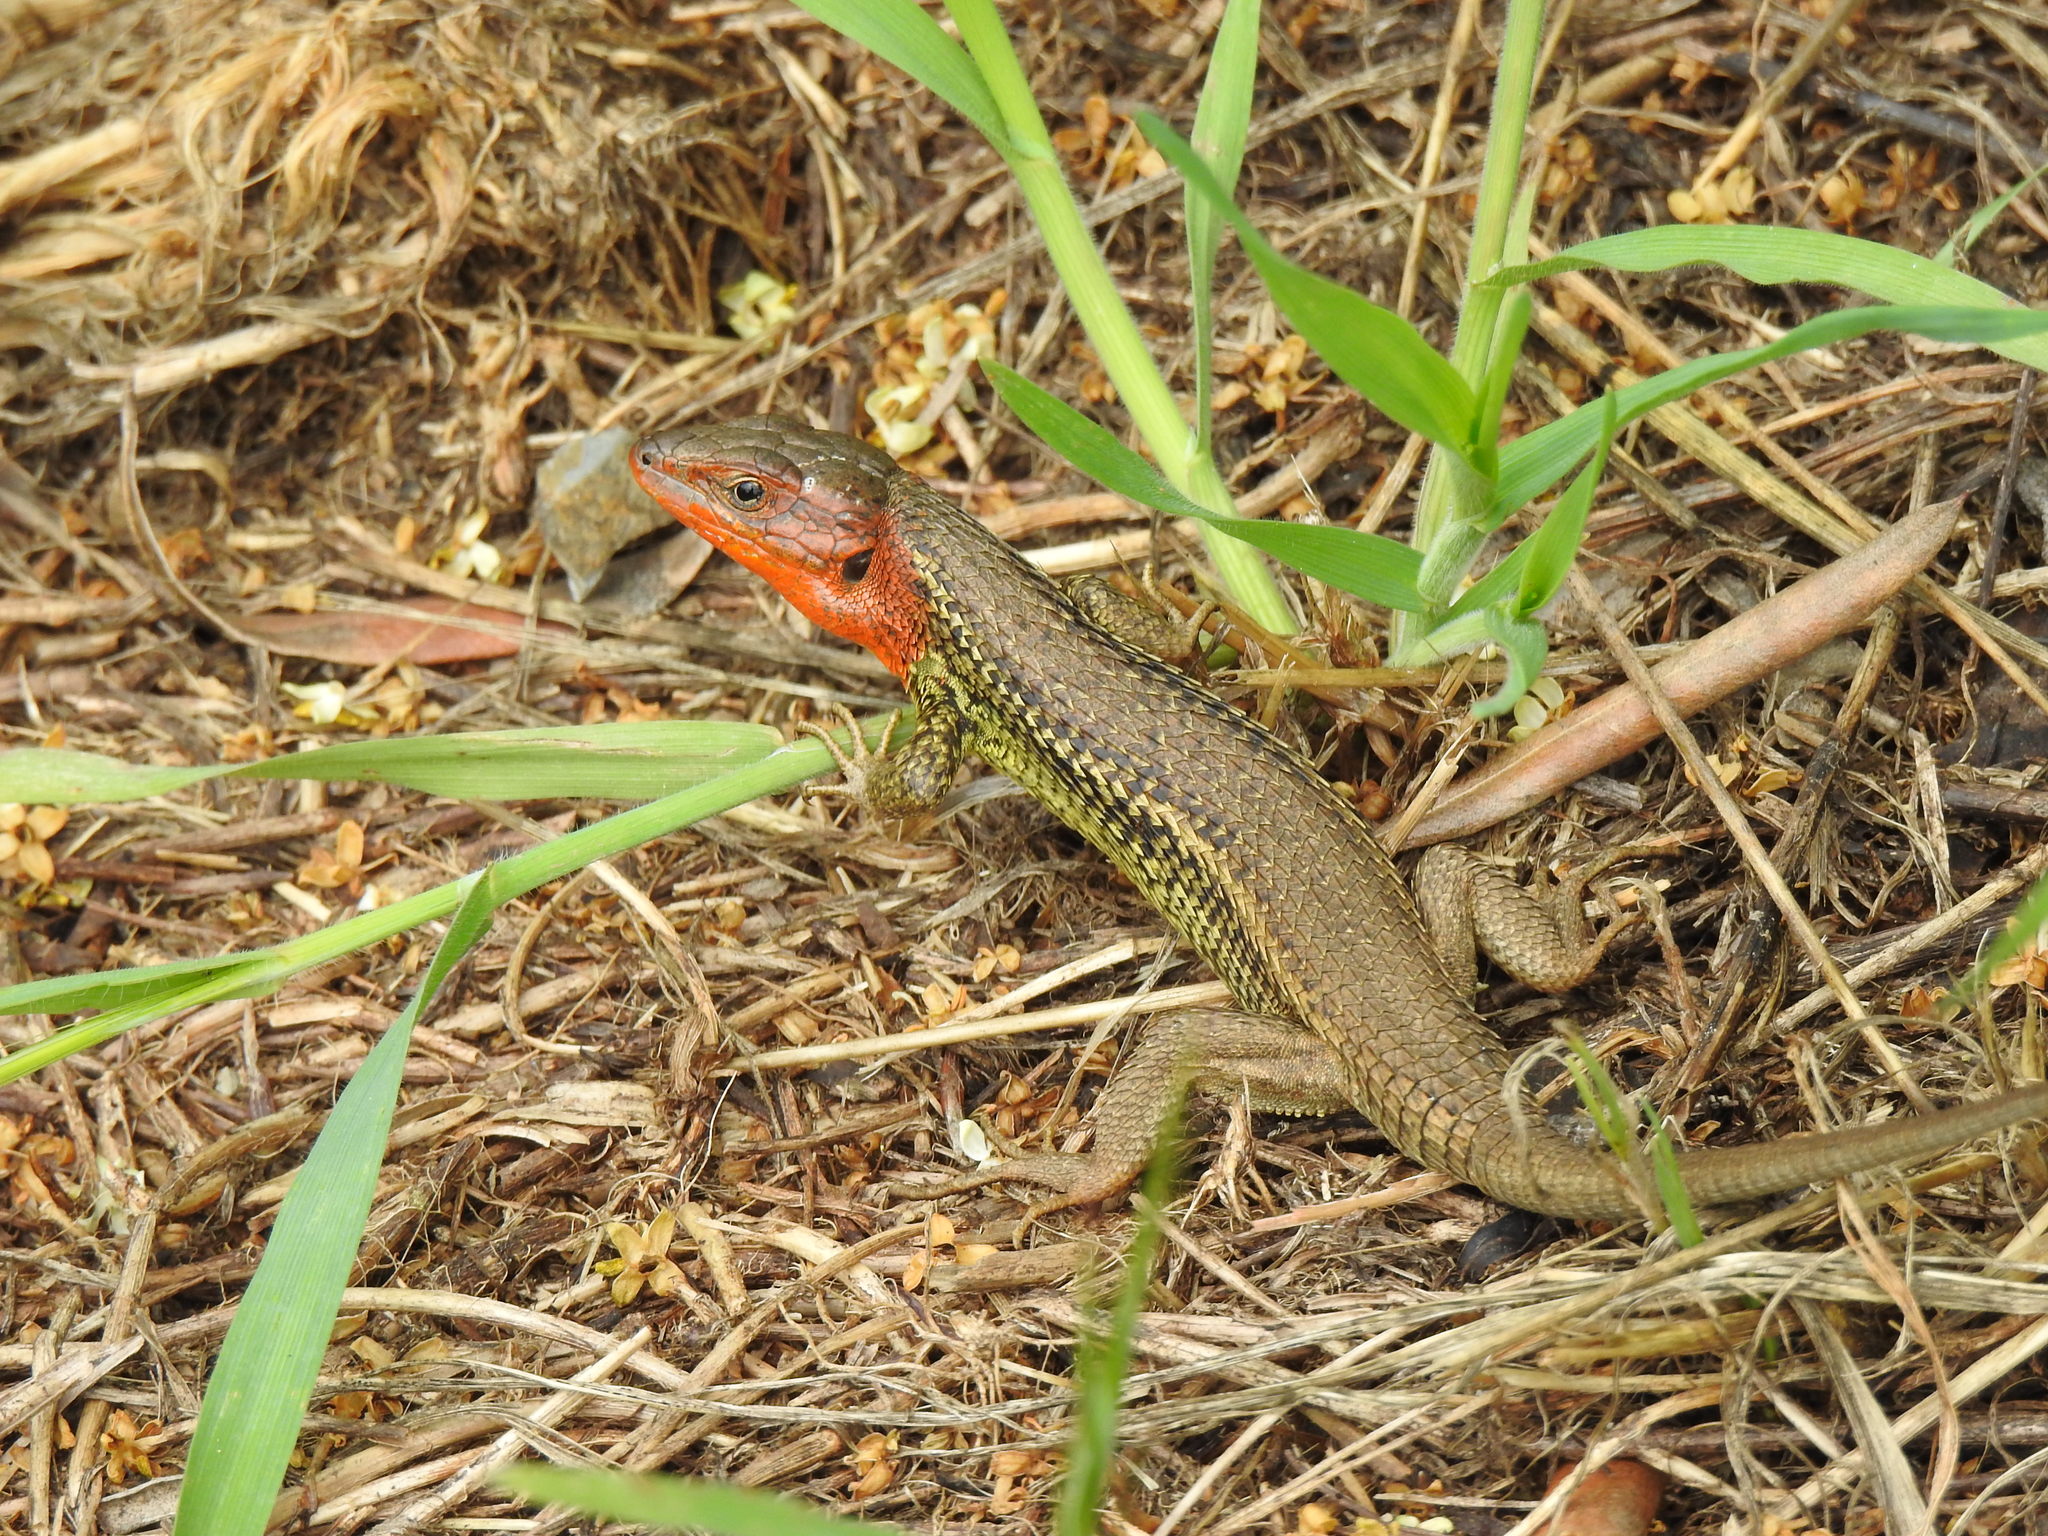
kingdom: Animalia
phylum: Chordata
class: Squamata
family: Lacertidae
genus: Psammodromus
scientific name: Psammodromus algirus
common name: Algerian psammodromus
